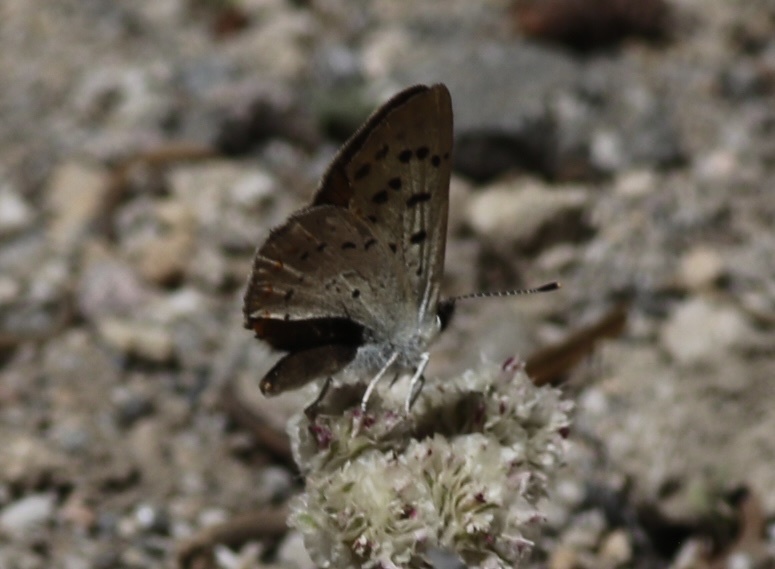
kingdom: Animalia
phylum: Arthropoda
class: Insecta
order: Lepidoptera
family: Lycaenidae
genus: Tharsalea
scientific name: Tharsalea nivalis
